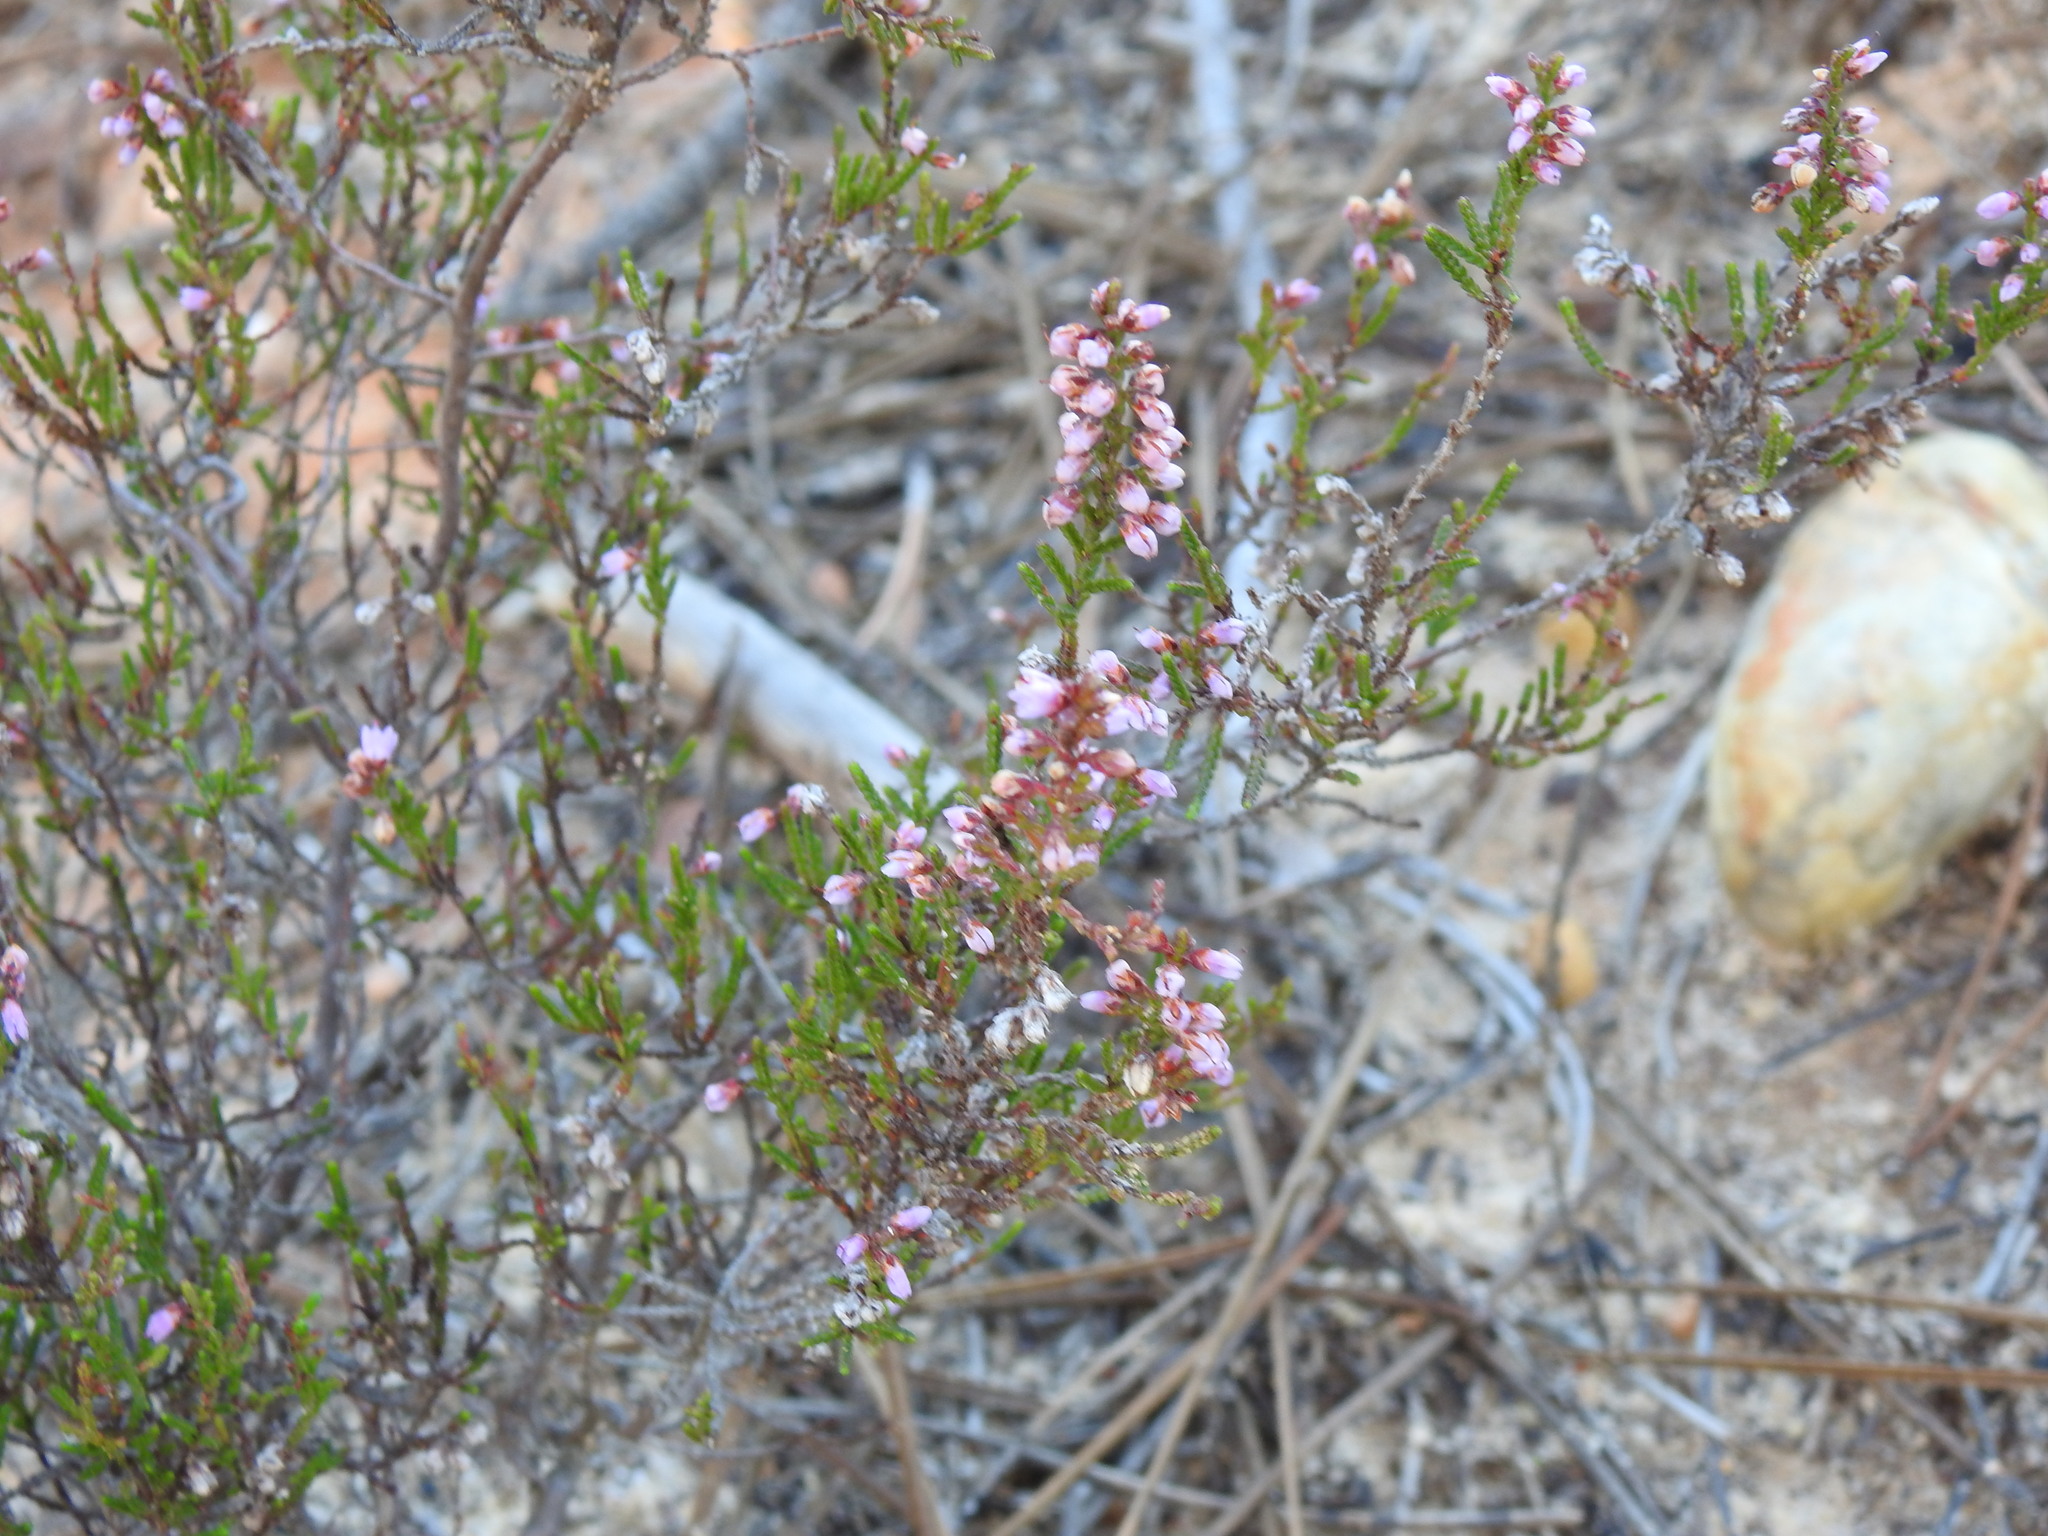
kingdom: Plantae
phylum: Tracheophyta
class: Magnoliopsida
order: Ericales
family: Ericaceae
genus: Calluna
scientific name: Calluna vulgaris
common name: Heather
